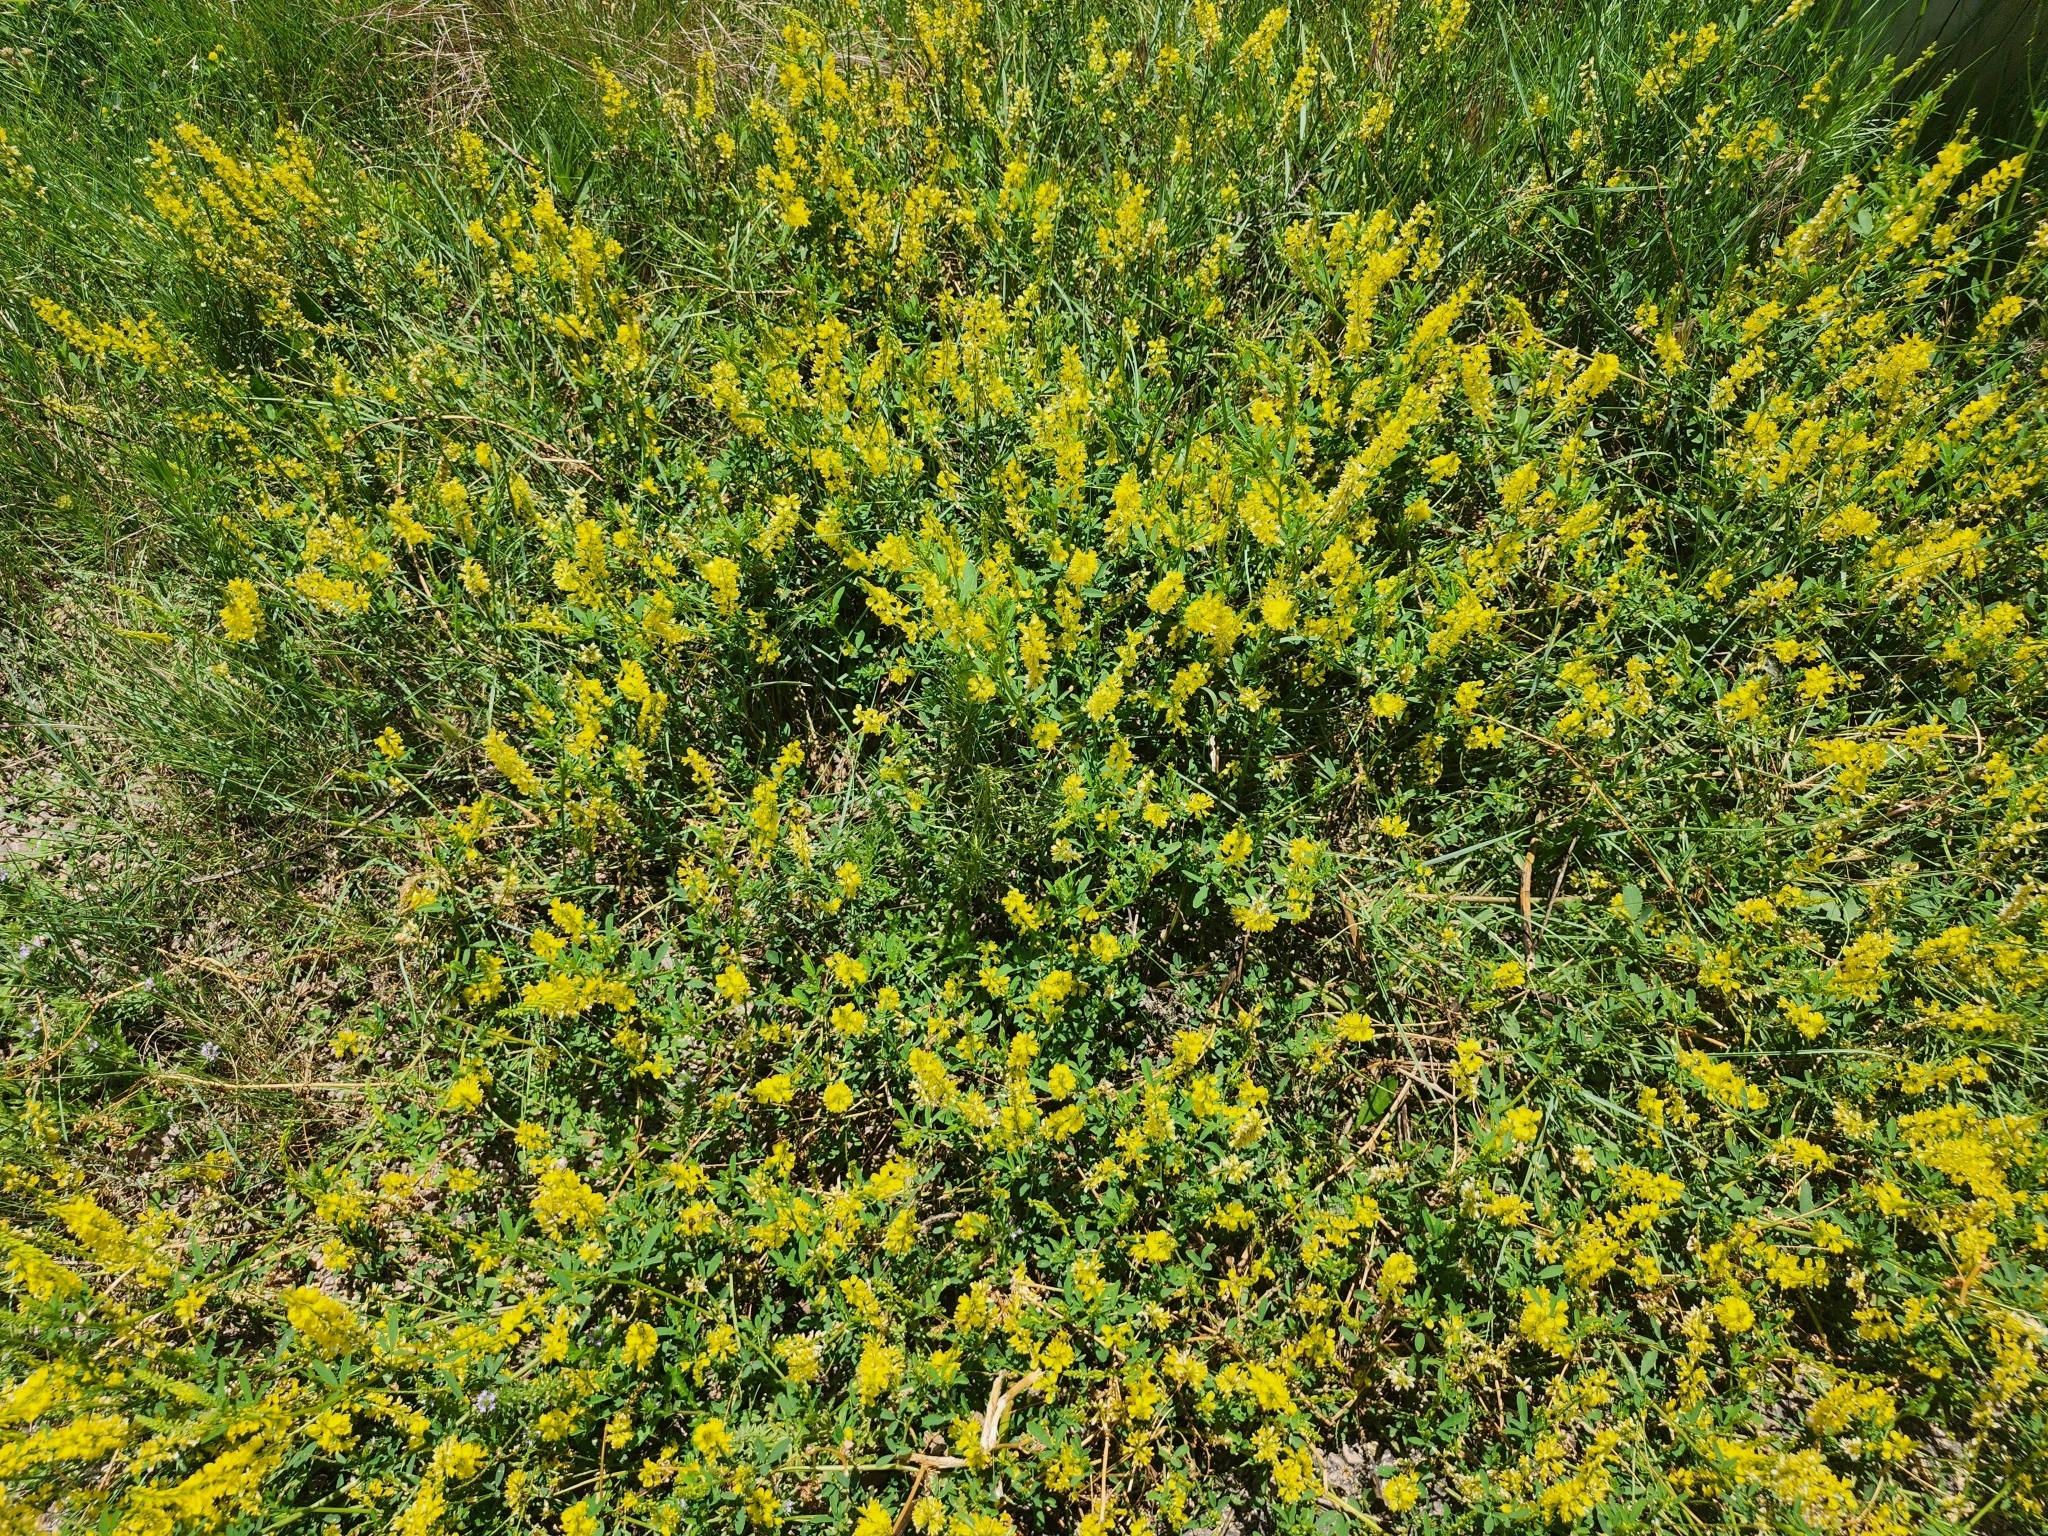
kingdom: Plantae
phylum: Tracheophyta
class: Magnoliopsida
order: Fabales
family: Fabaceae
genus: Melilotus
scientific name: Melilotus officinalis
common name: Sweetclover
